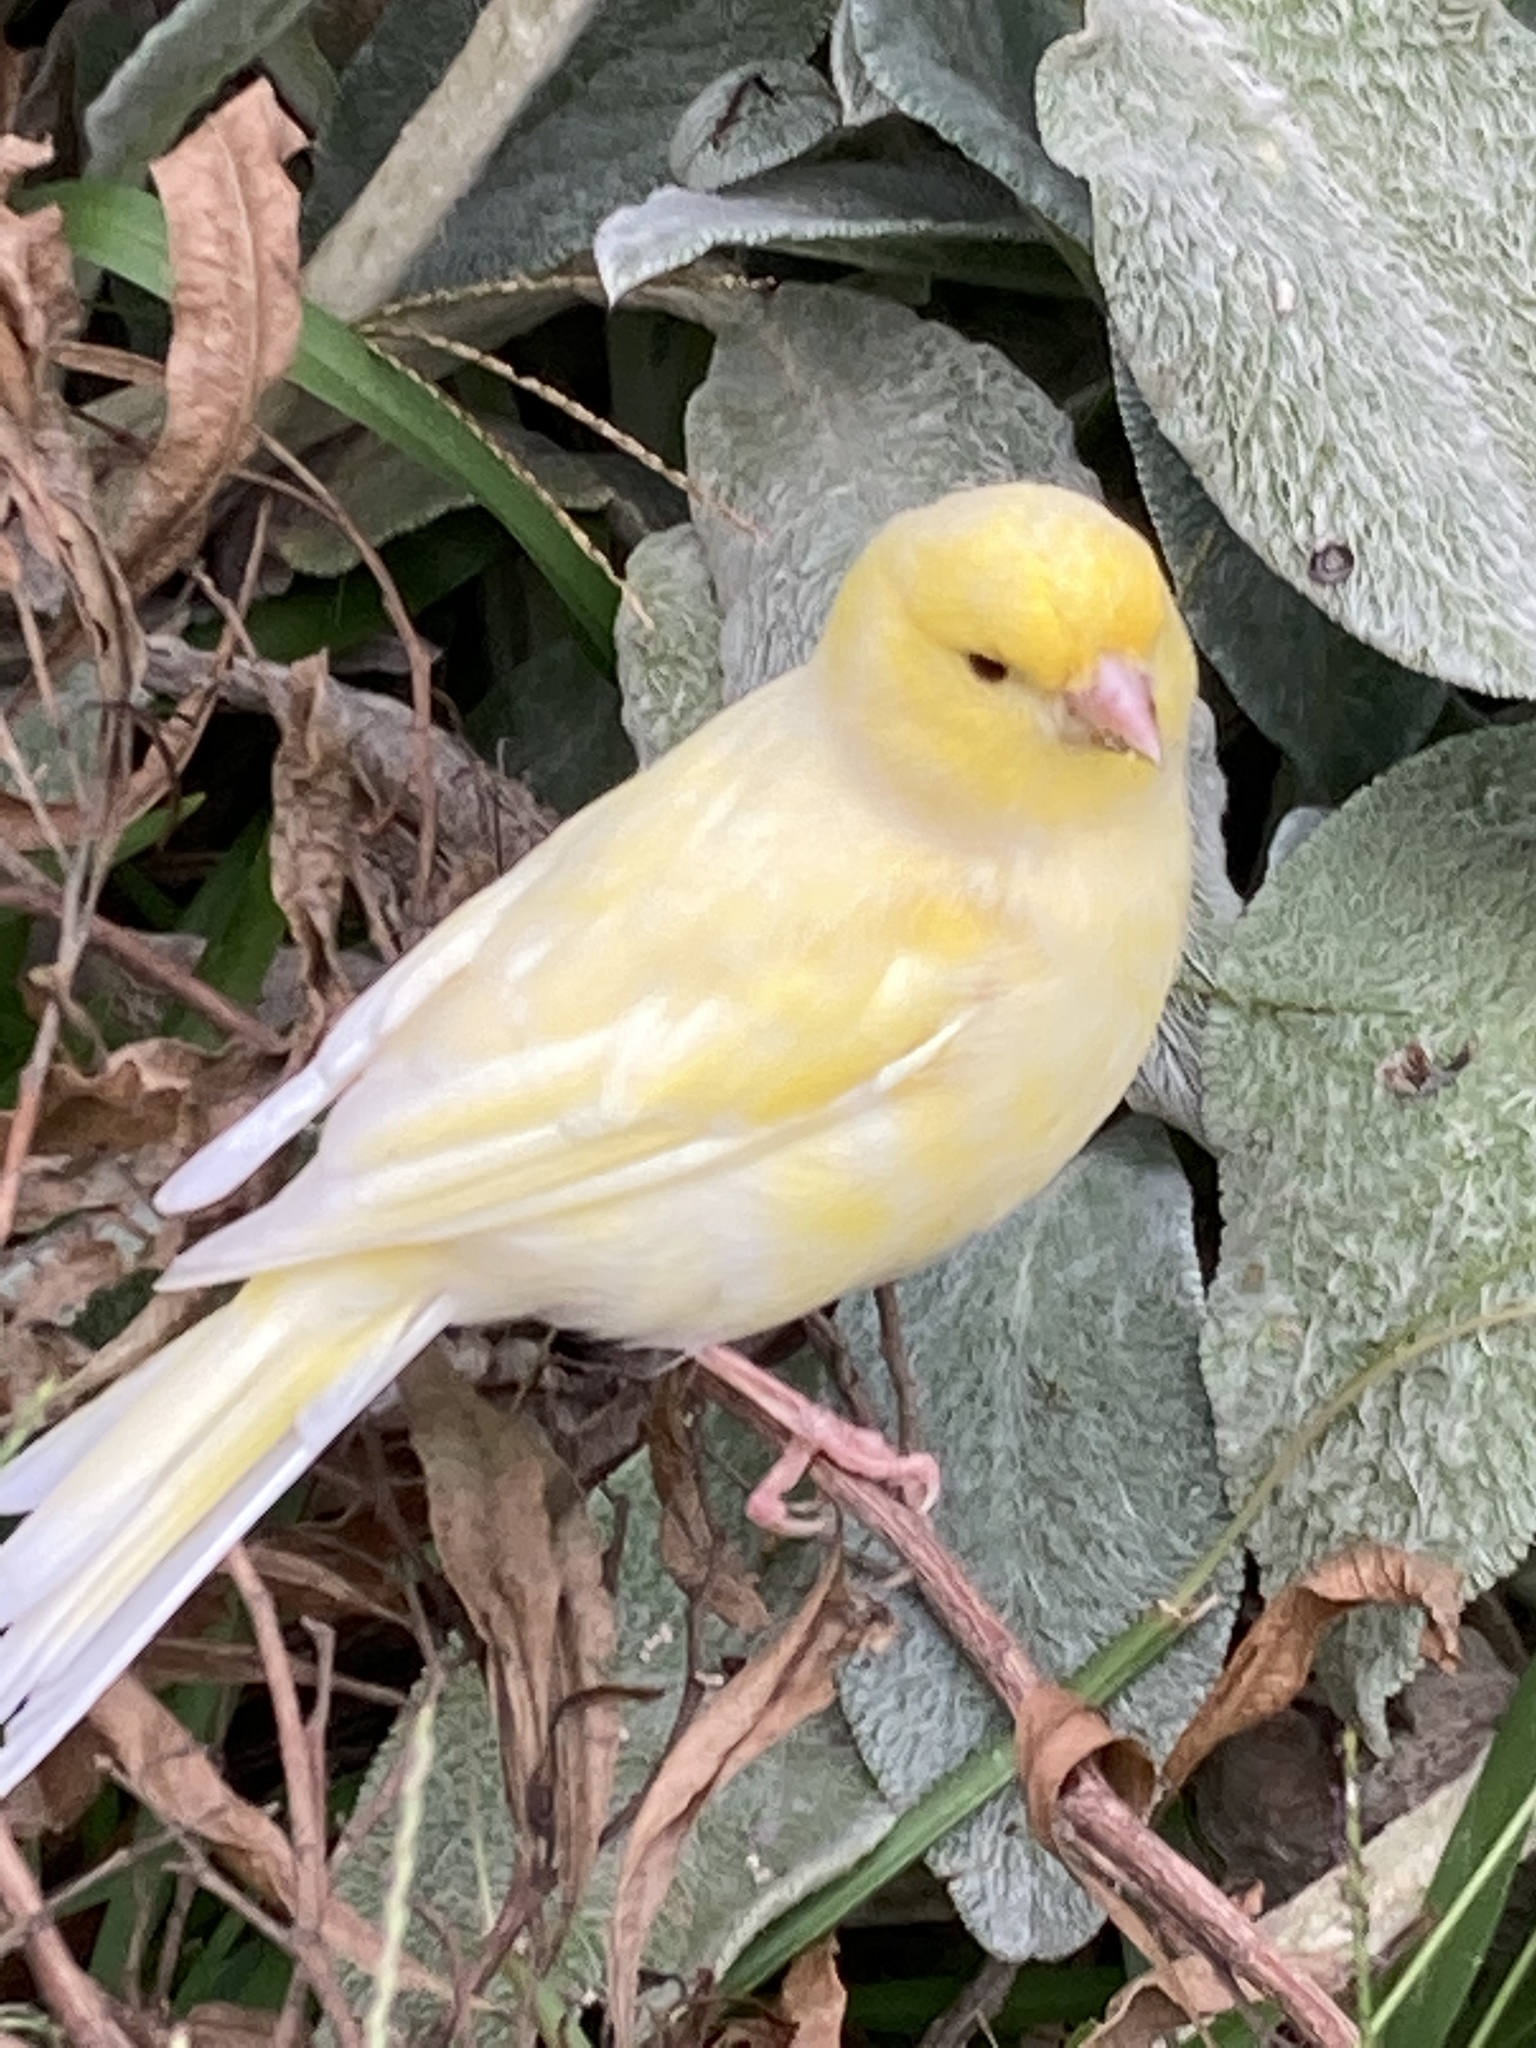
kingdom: Animalia
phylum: Chordata
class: Aves
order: Passeriformes
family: Fringillidae
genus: Serinus
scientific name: Serinus canaria
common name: Atlantic canary
